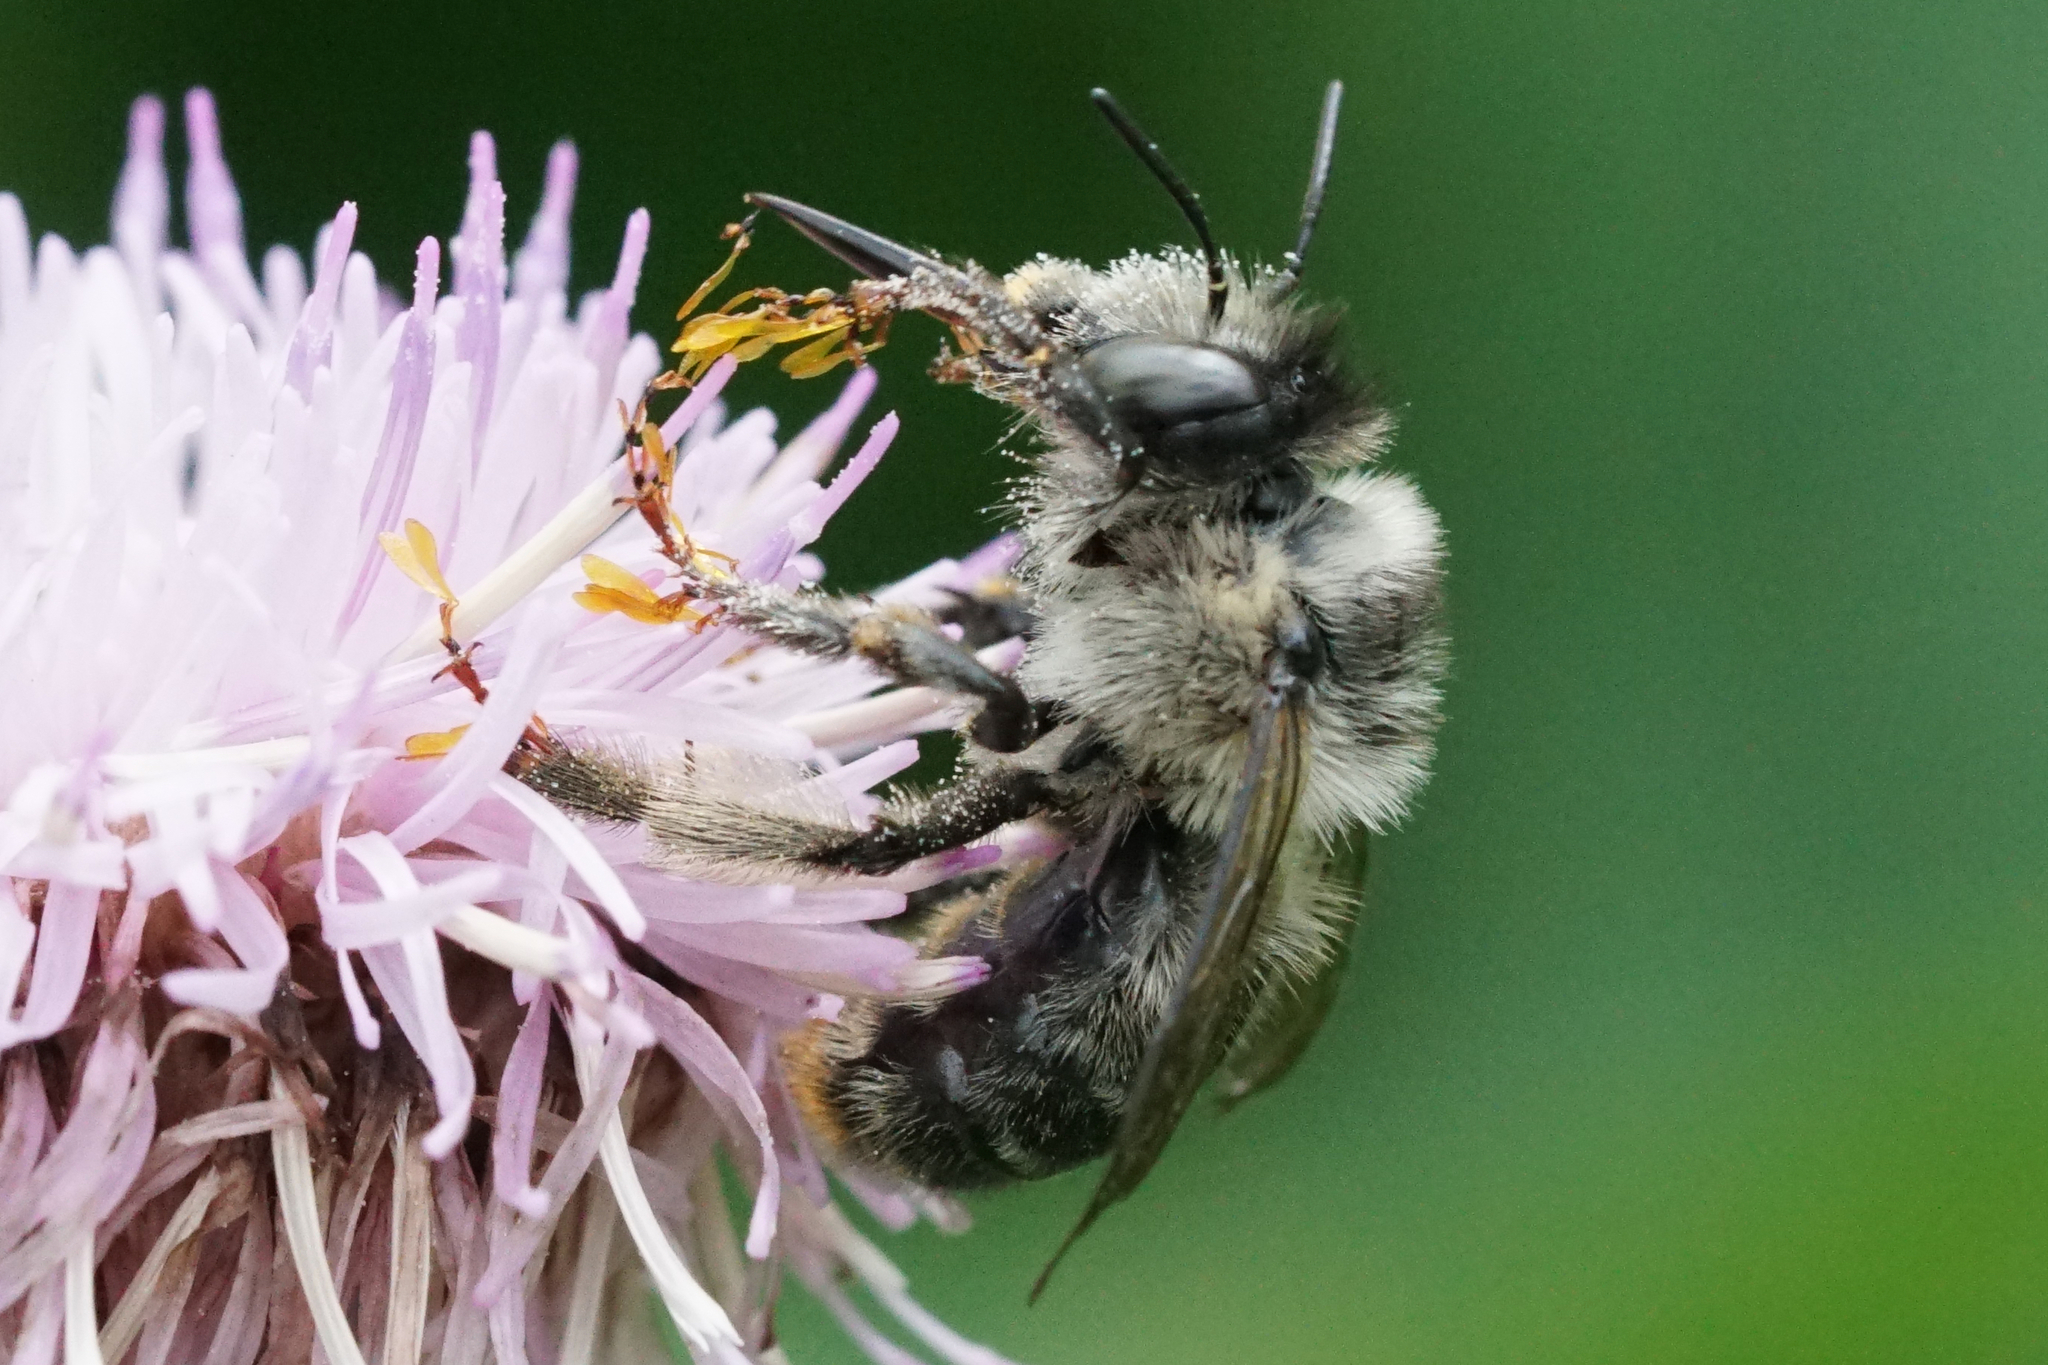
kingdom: Animalia
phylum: Arthropoda
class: Insecta
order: Hymenoptera
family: Apidae
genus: Anthophora
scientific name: Anthophora terminalis
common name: Orange-tipped wood-digger bee
